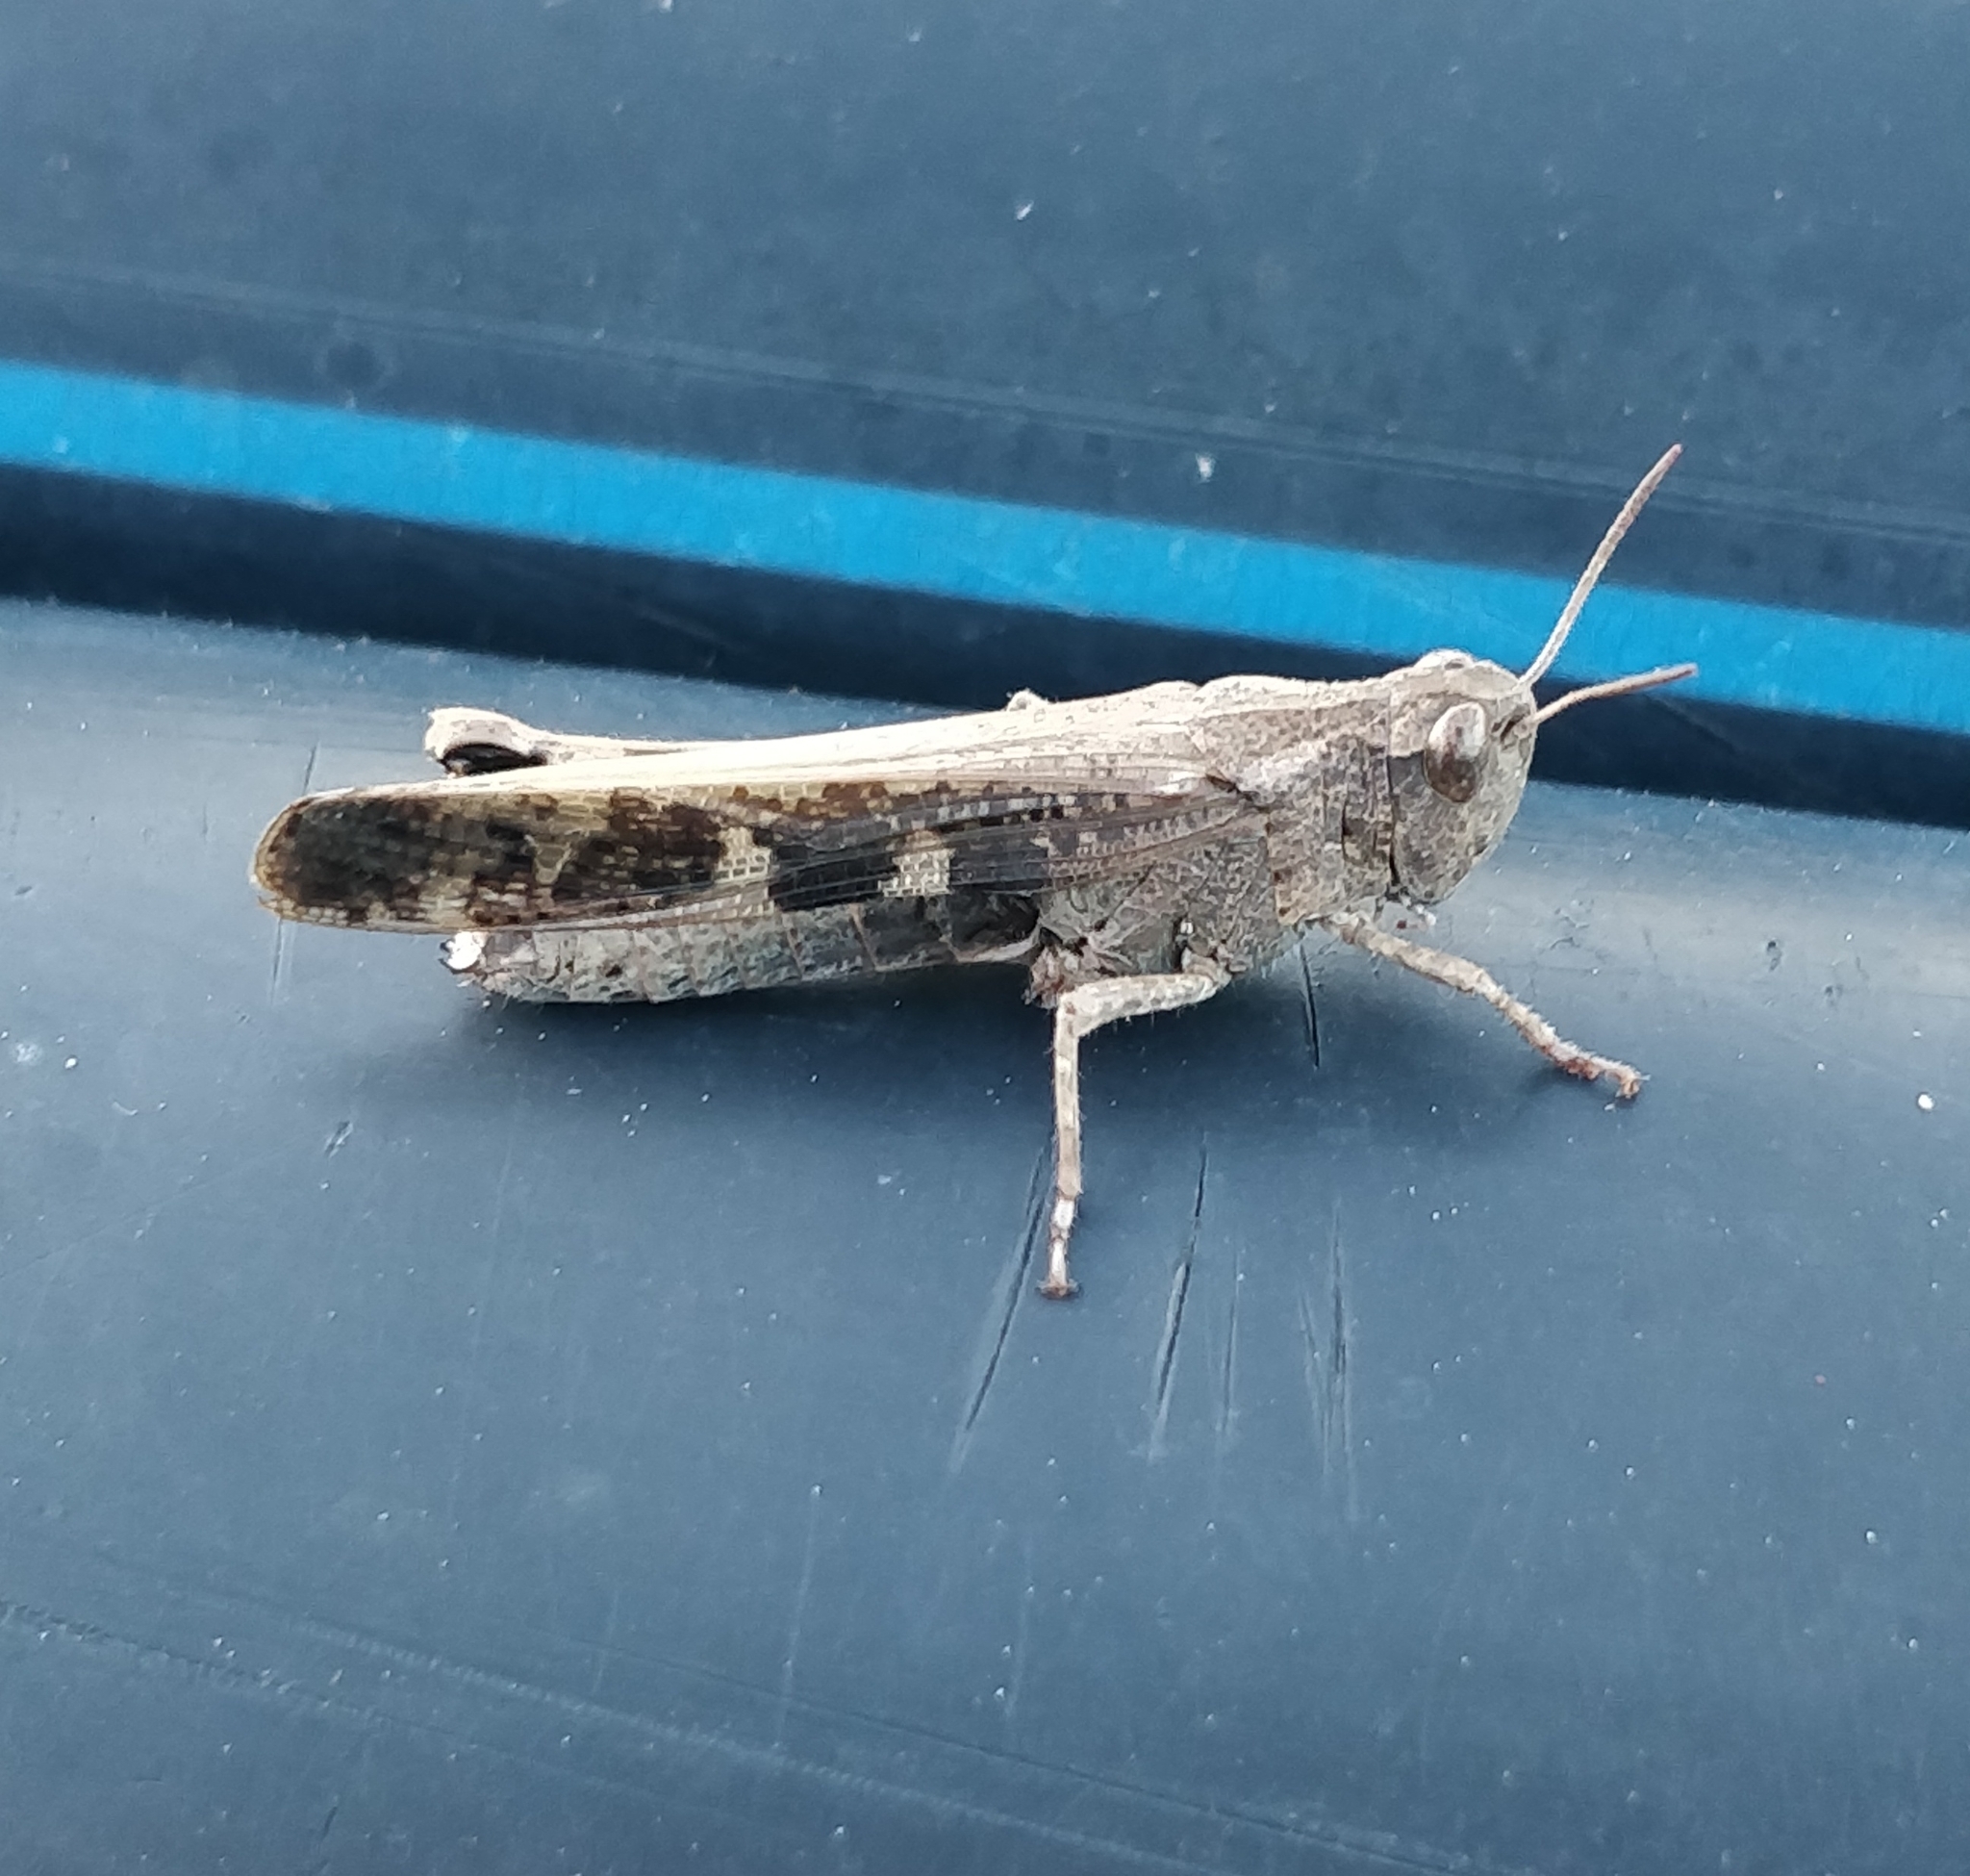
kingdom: Animalia
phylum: Arthropoda
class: Insecta
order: Orthoptera
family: Acrididae
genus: Aiolopus
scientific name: Aiolopus strepens
